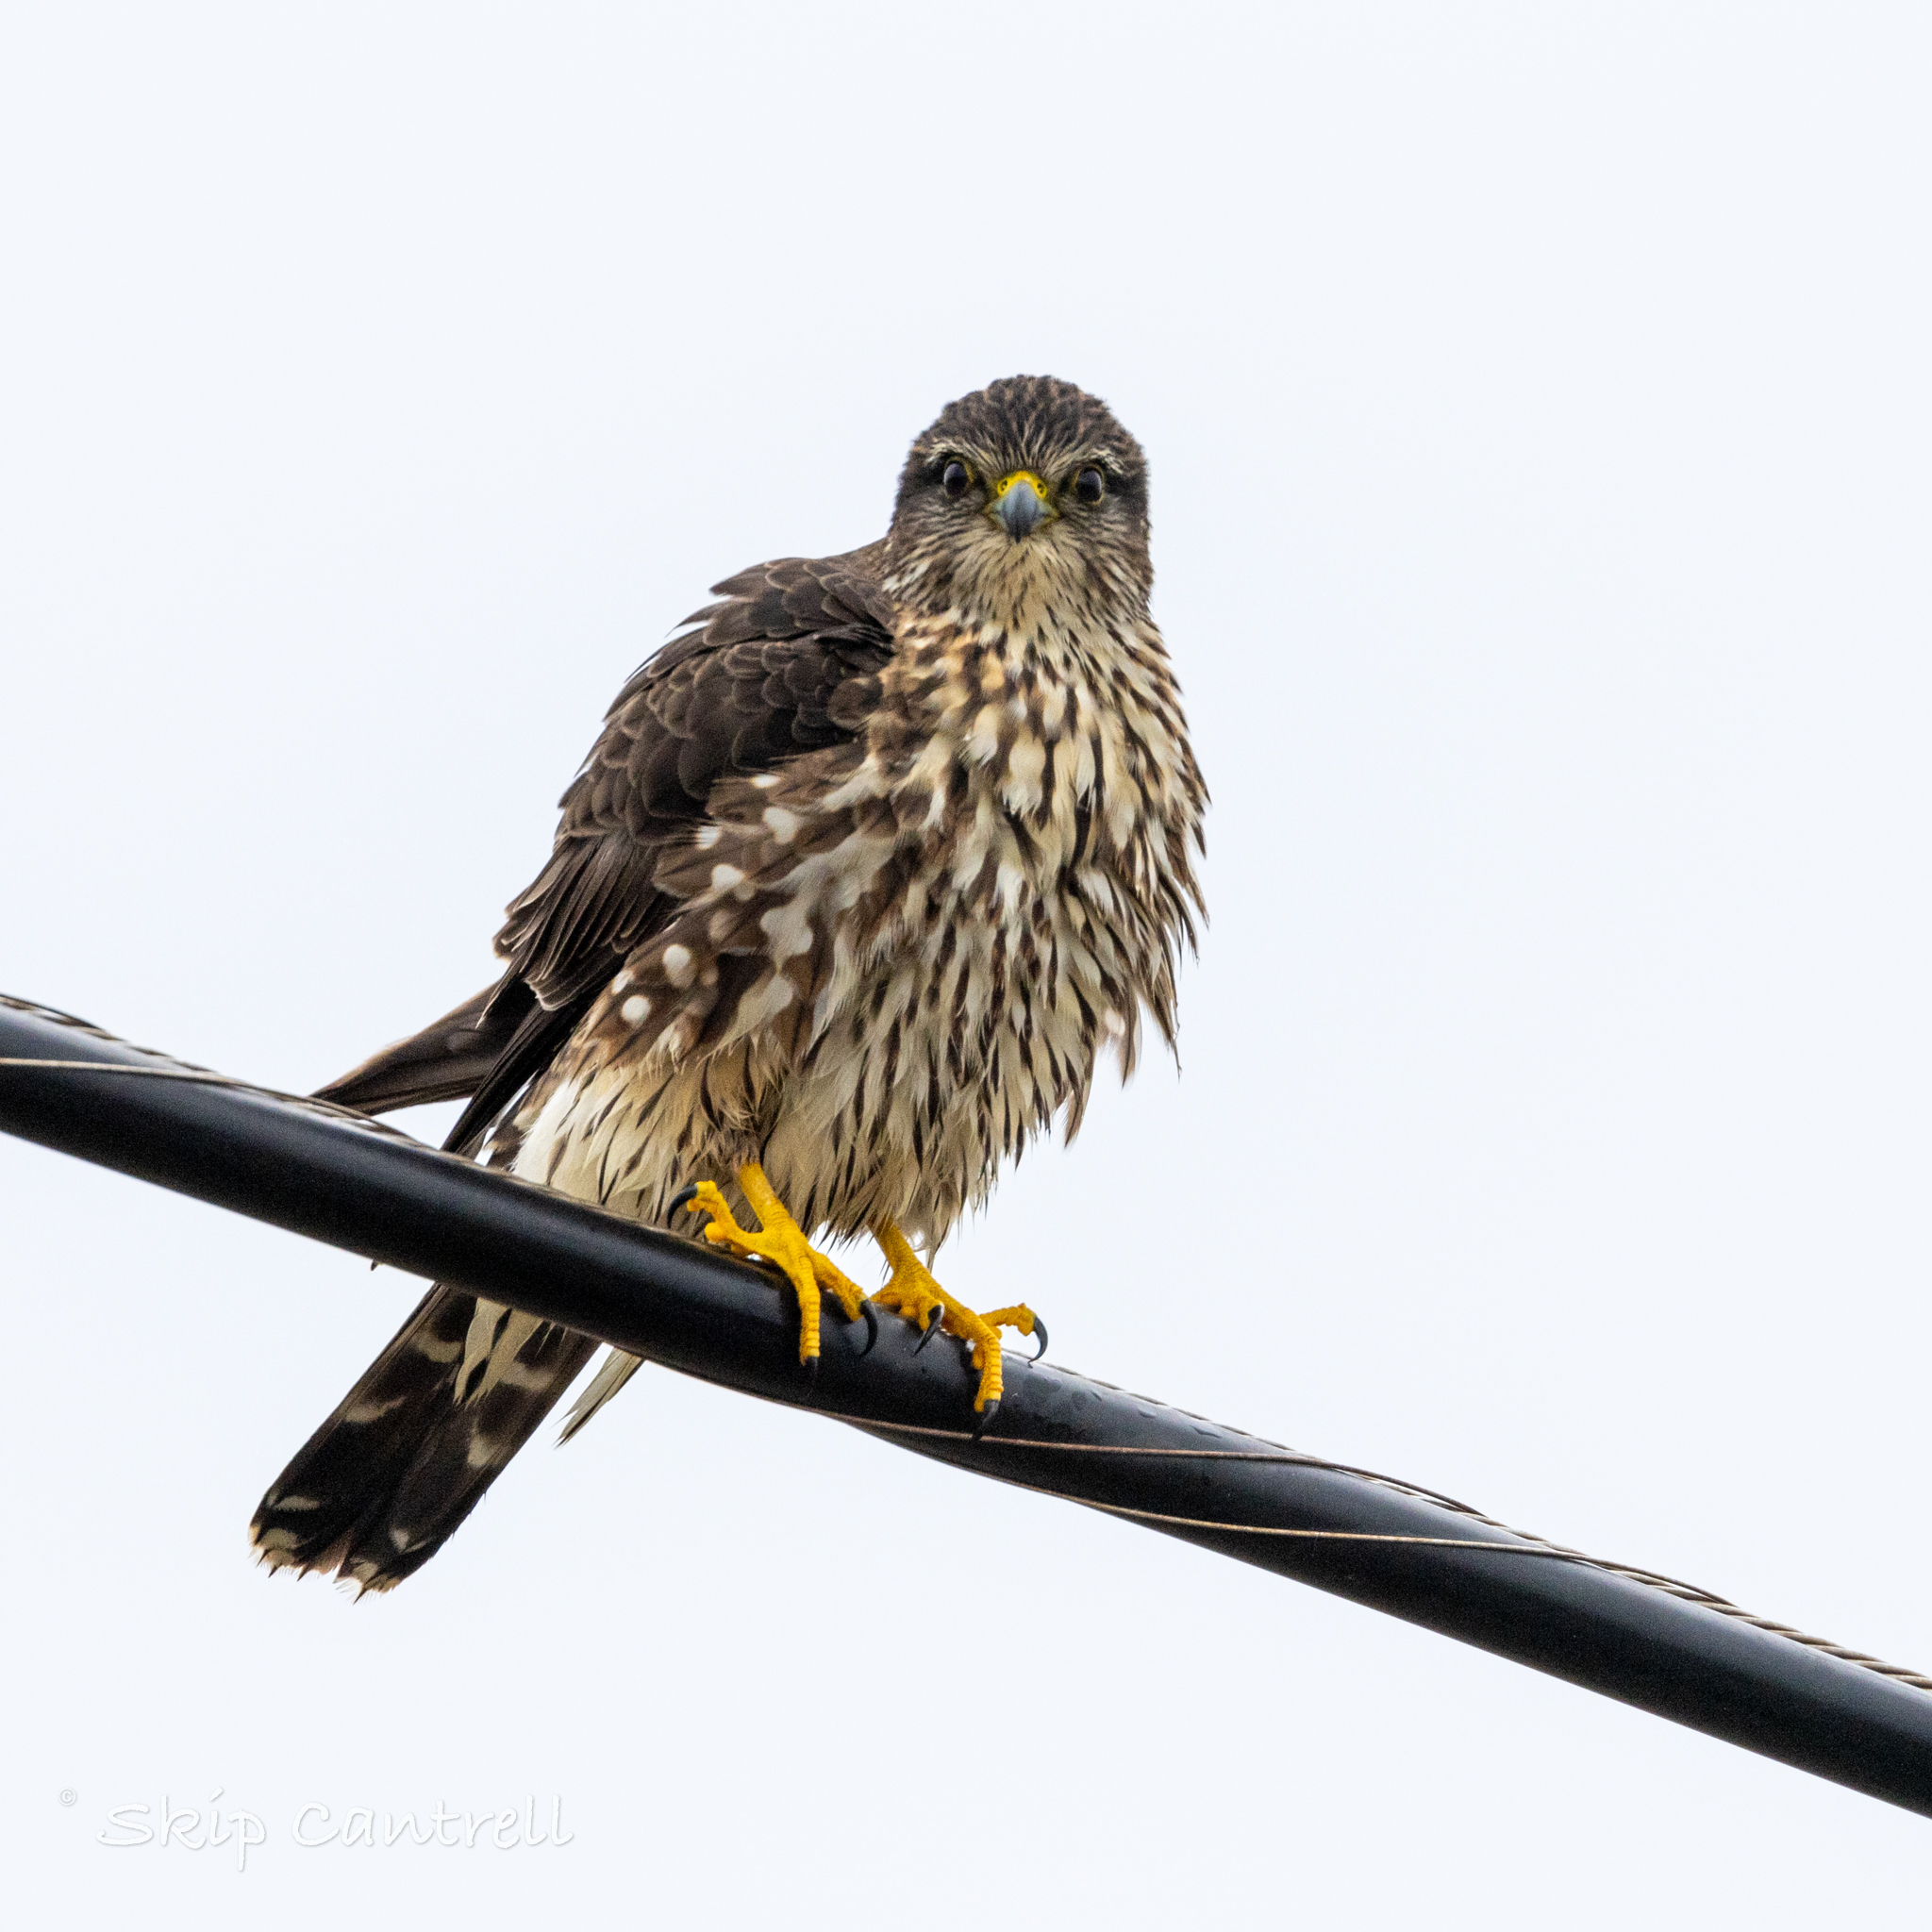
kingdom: Animalia
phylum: Chordata
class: Aves
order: Falconiformes
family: Falconidae
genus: Falco
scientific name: Falco columbarius
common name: Merlin
